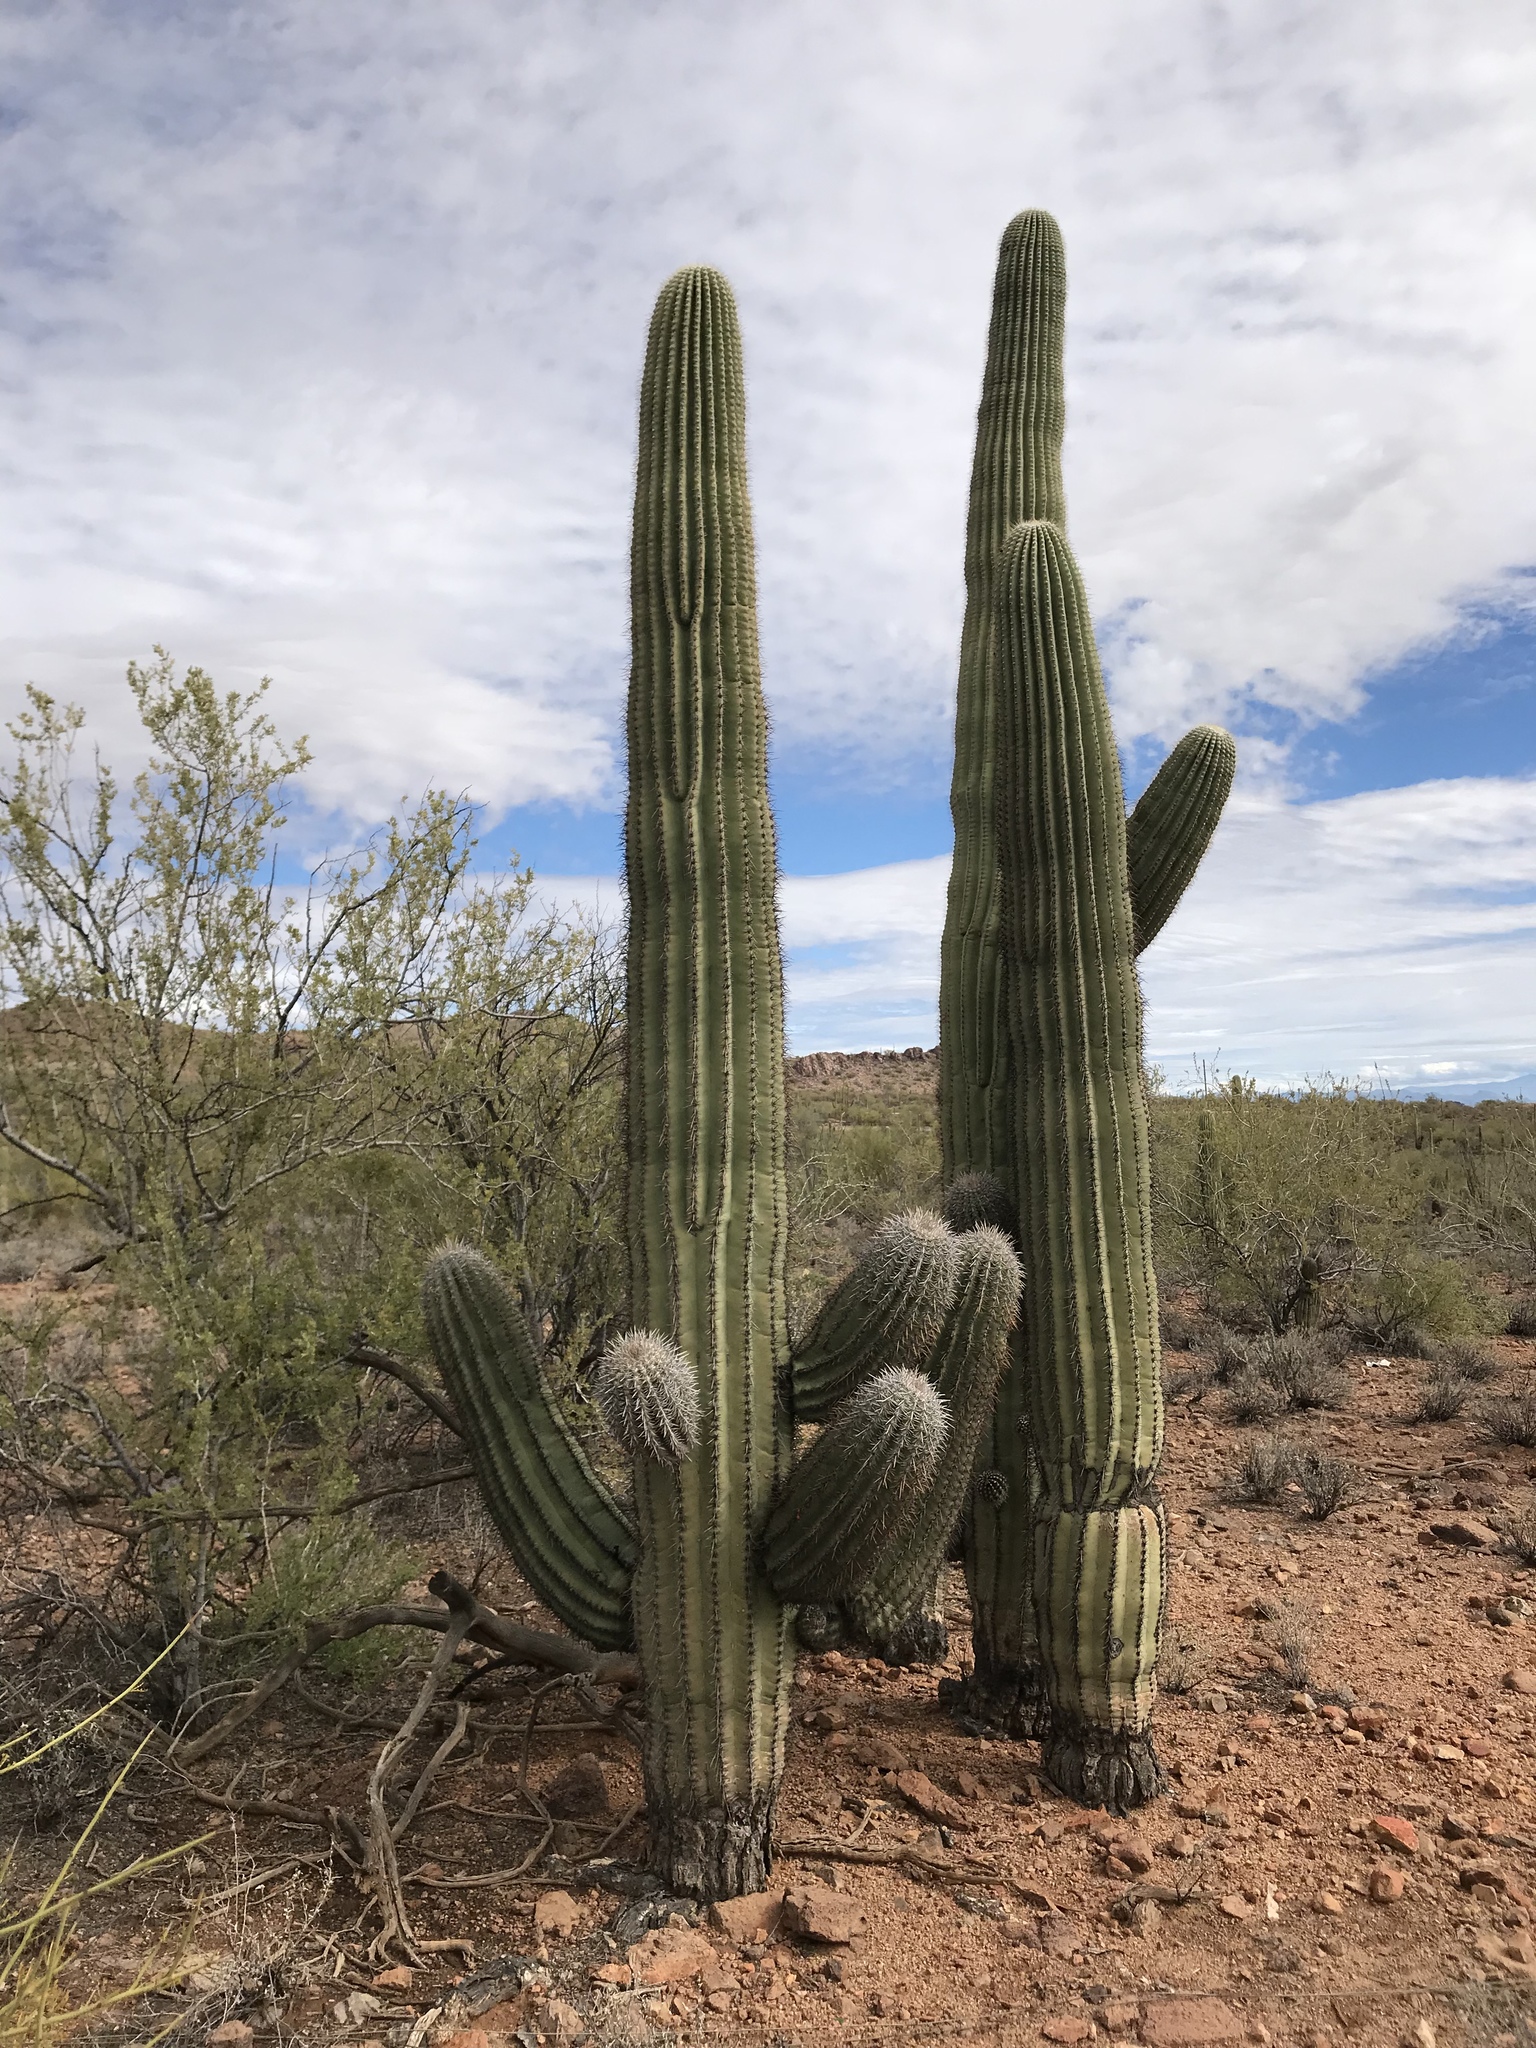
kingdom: Plantae
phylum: Tracheophyta
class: Magnoliopsida
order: Caryophyllales
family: Cactaceae
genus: Carnegiea
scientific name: Carnegiea gigantea
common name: Saguaro
